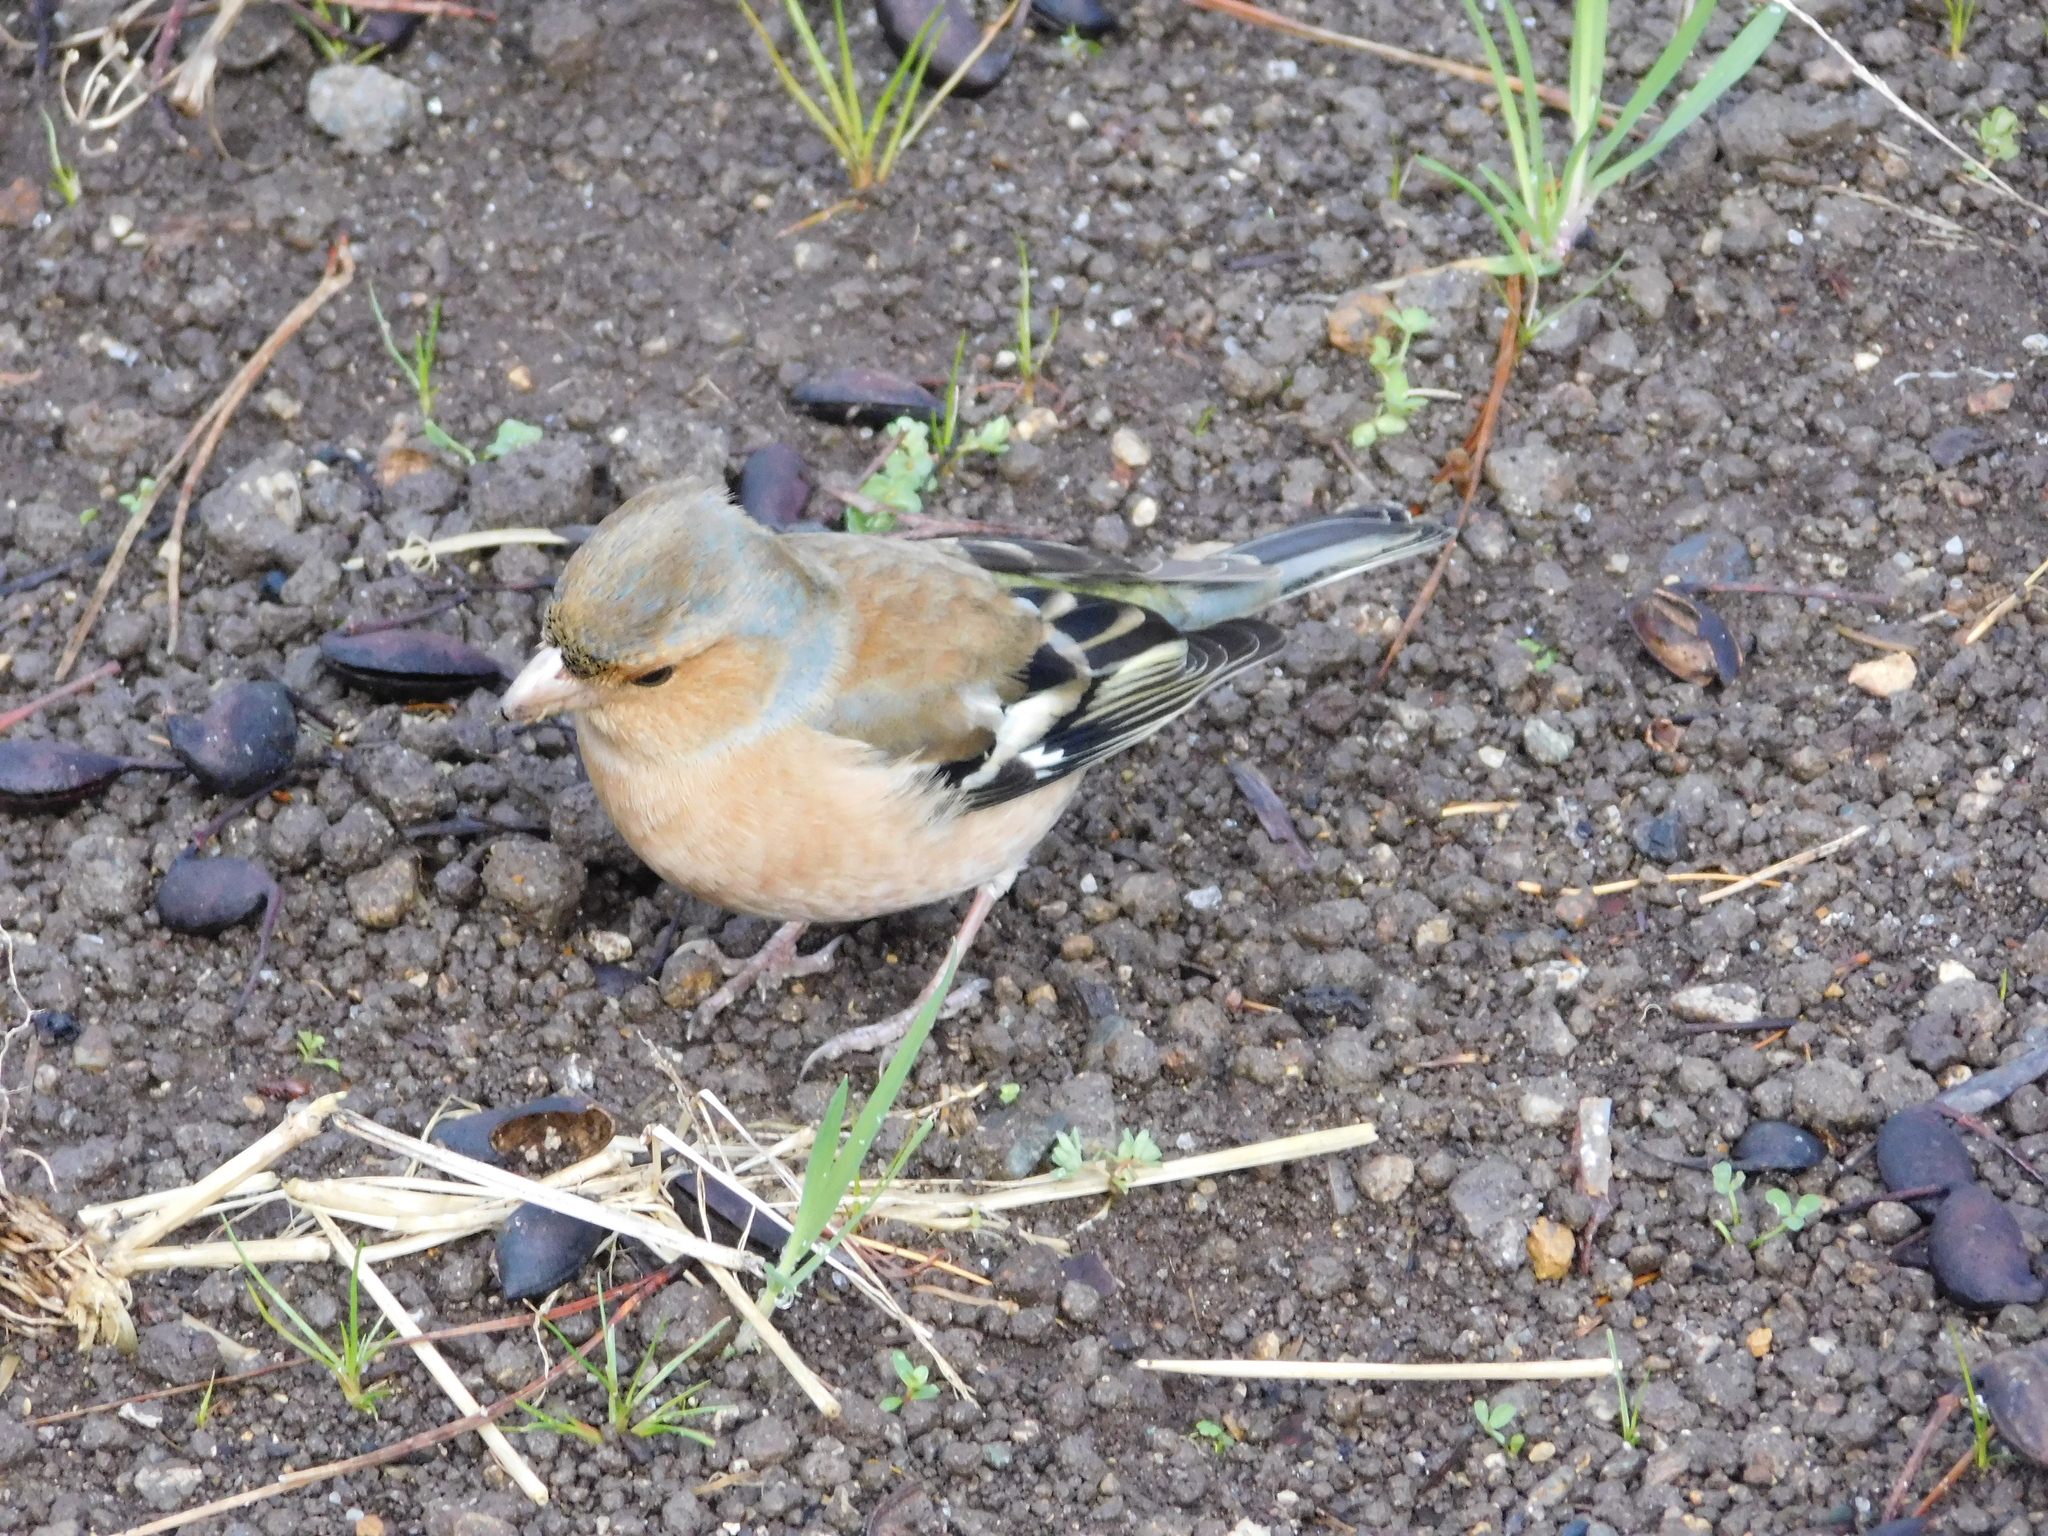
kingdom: Animalia
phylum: Chordata
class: Aves
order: Passeriformes
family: Fringillidae
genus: Fringilla
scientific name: Fringilla coelebs
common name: Common chaffinch
